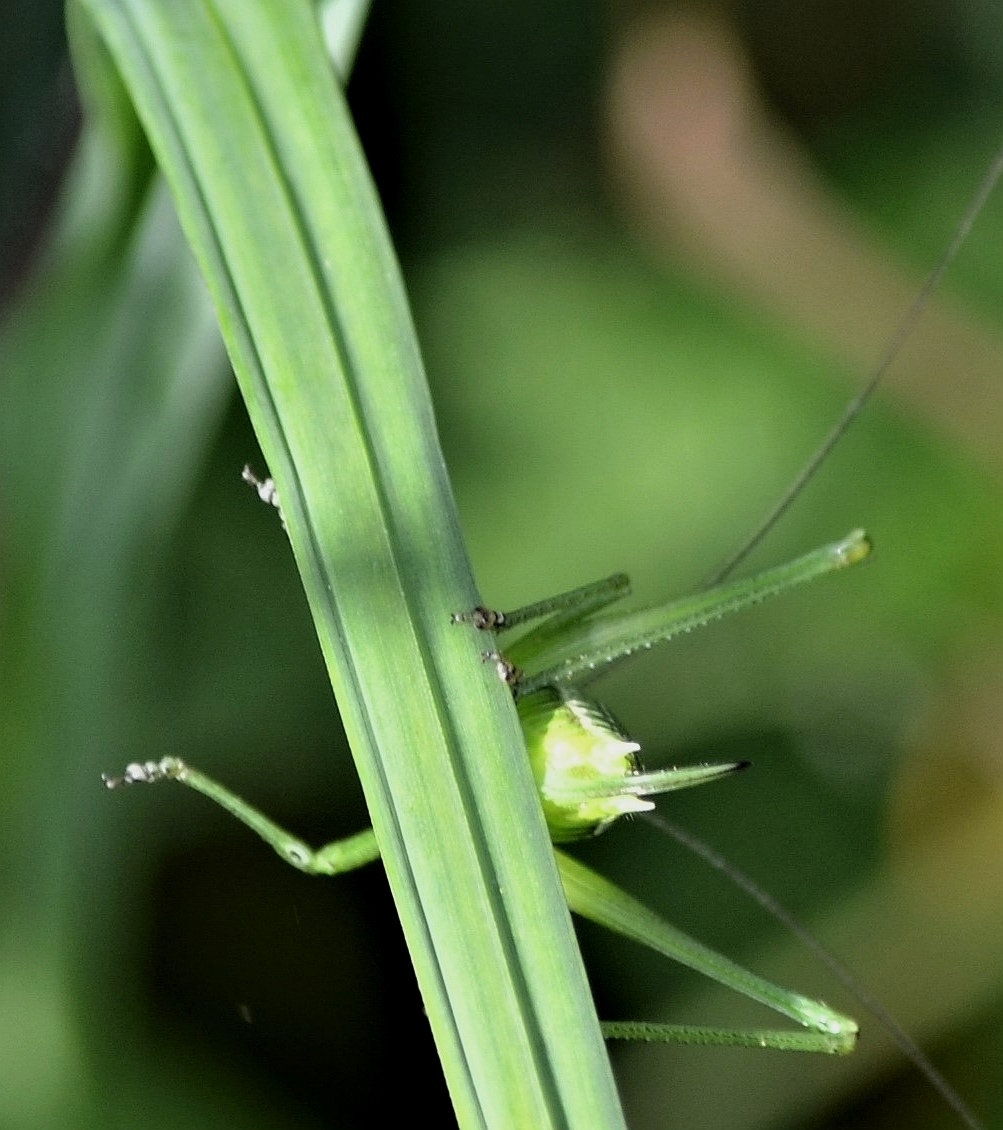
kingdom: Animalia
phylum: Arthropoda
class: Insecta
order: Orthoptera
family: Tettigoniidae
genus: Leptophyes
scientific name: Leptophyes boscii
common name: Balkan speckled bush-cricket
